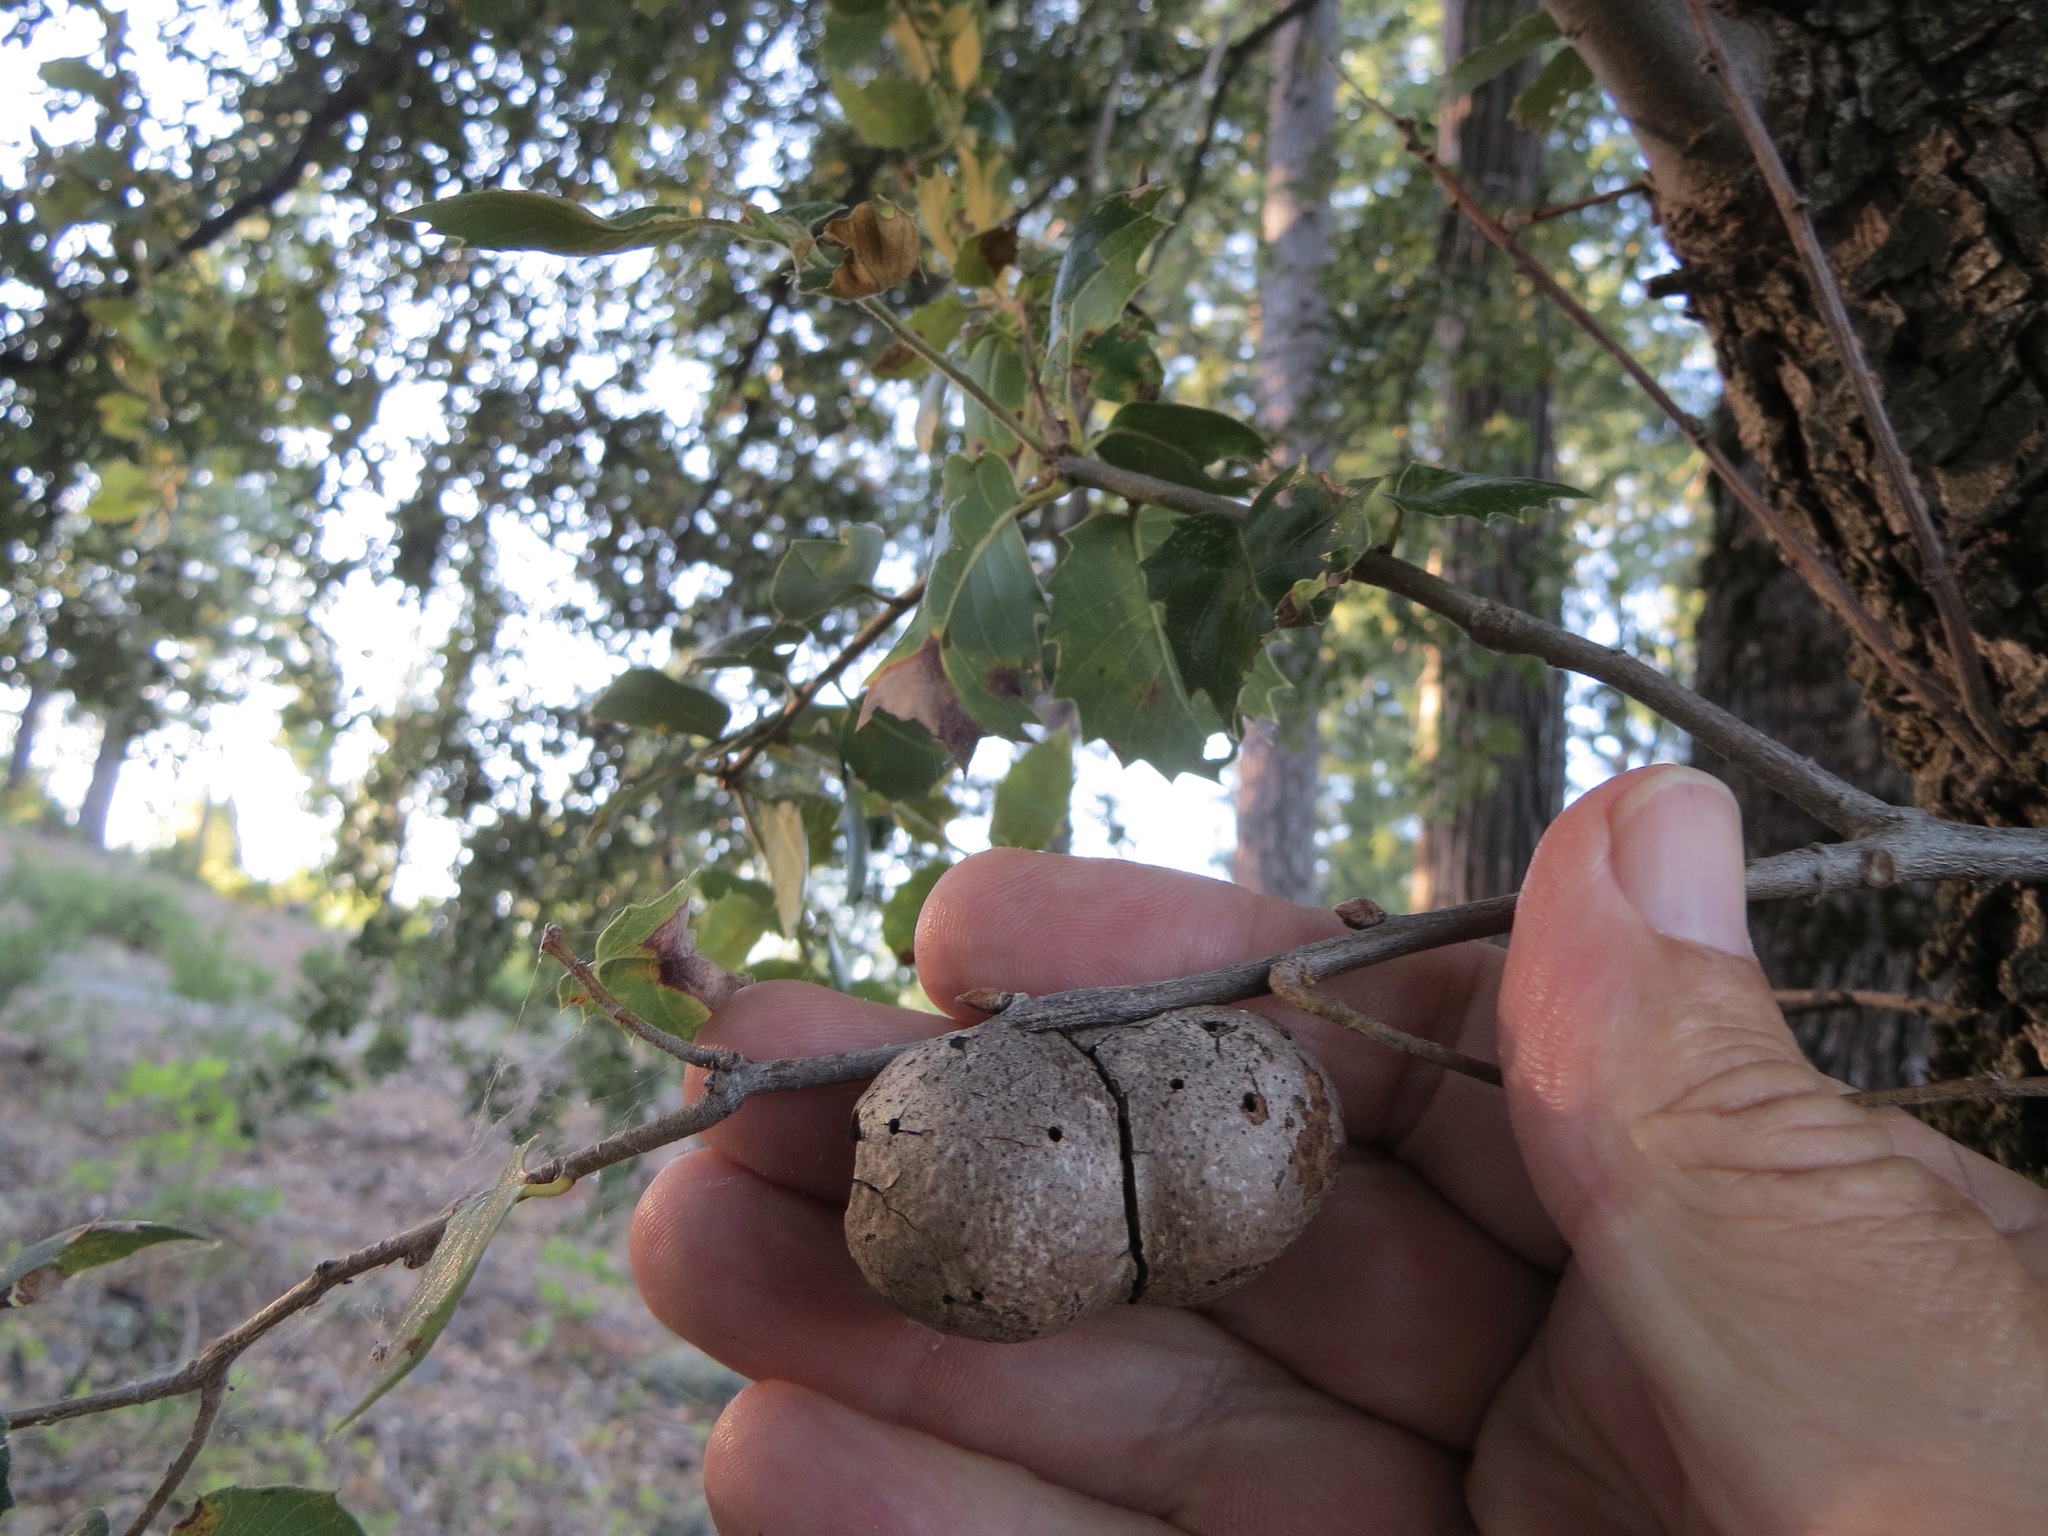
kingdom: Animalia
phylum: Arthropoda
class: Insecta
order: Hymenoptera
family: Cynipidae
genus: Disholandricus
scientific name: Disholandricus
